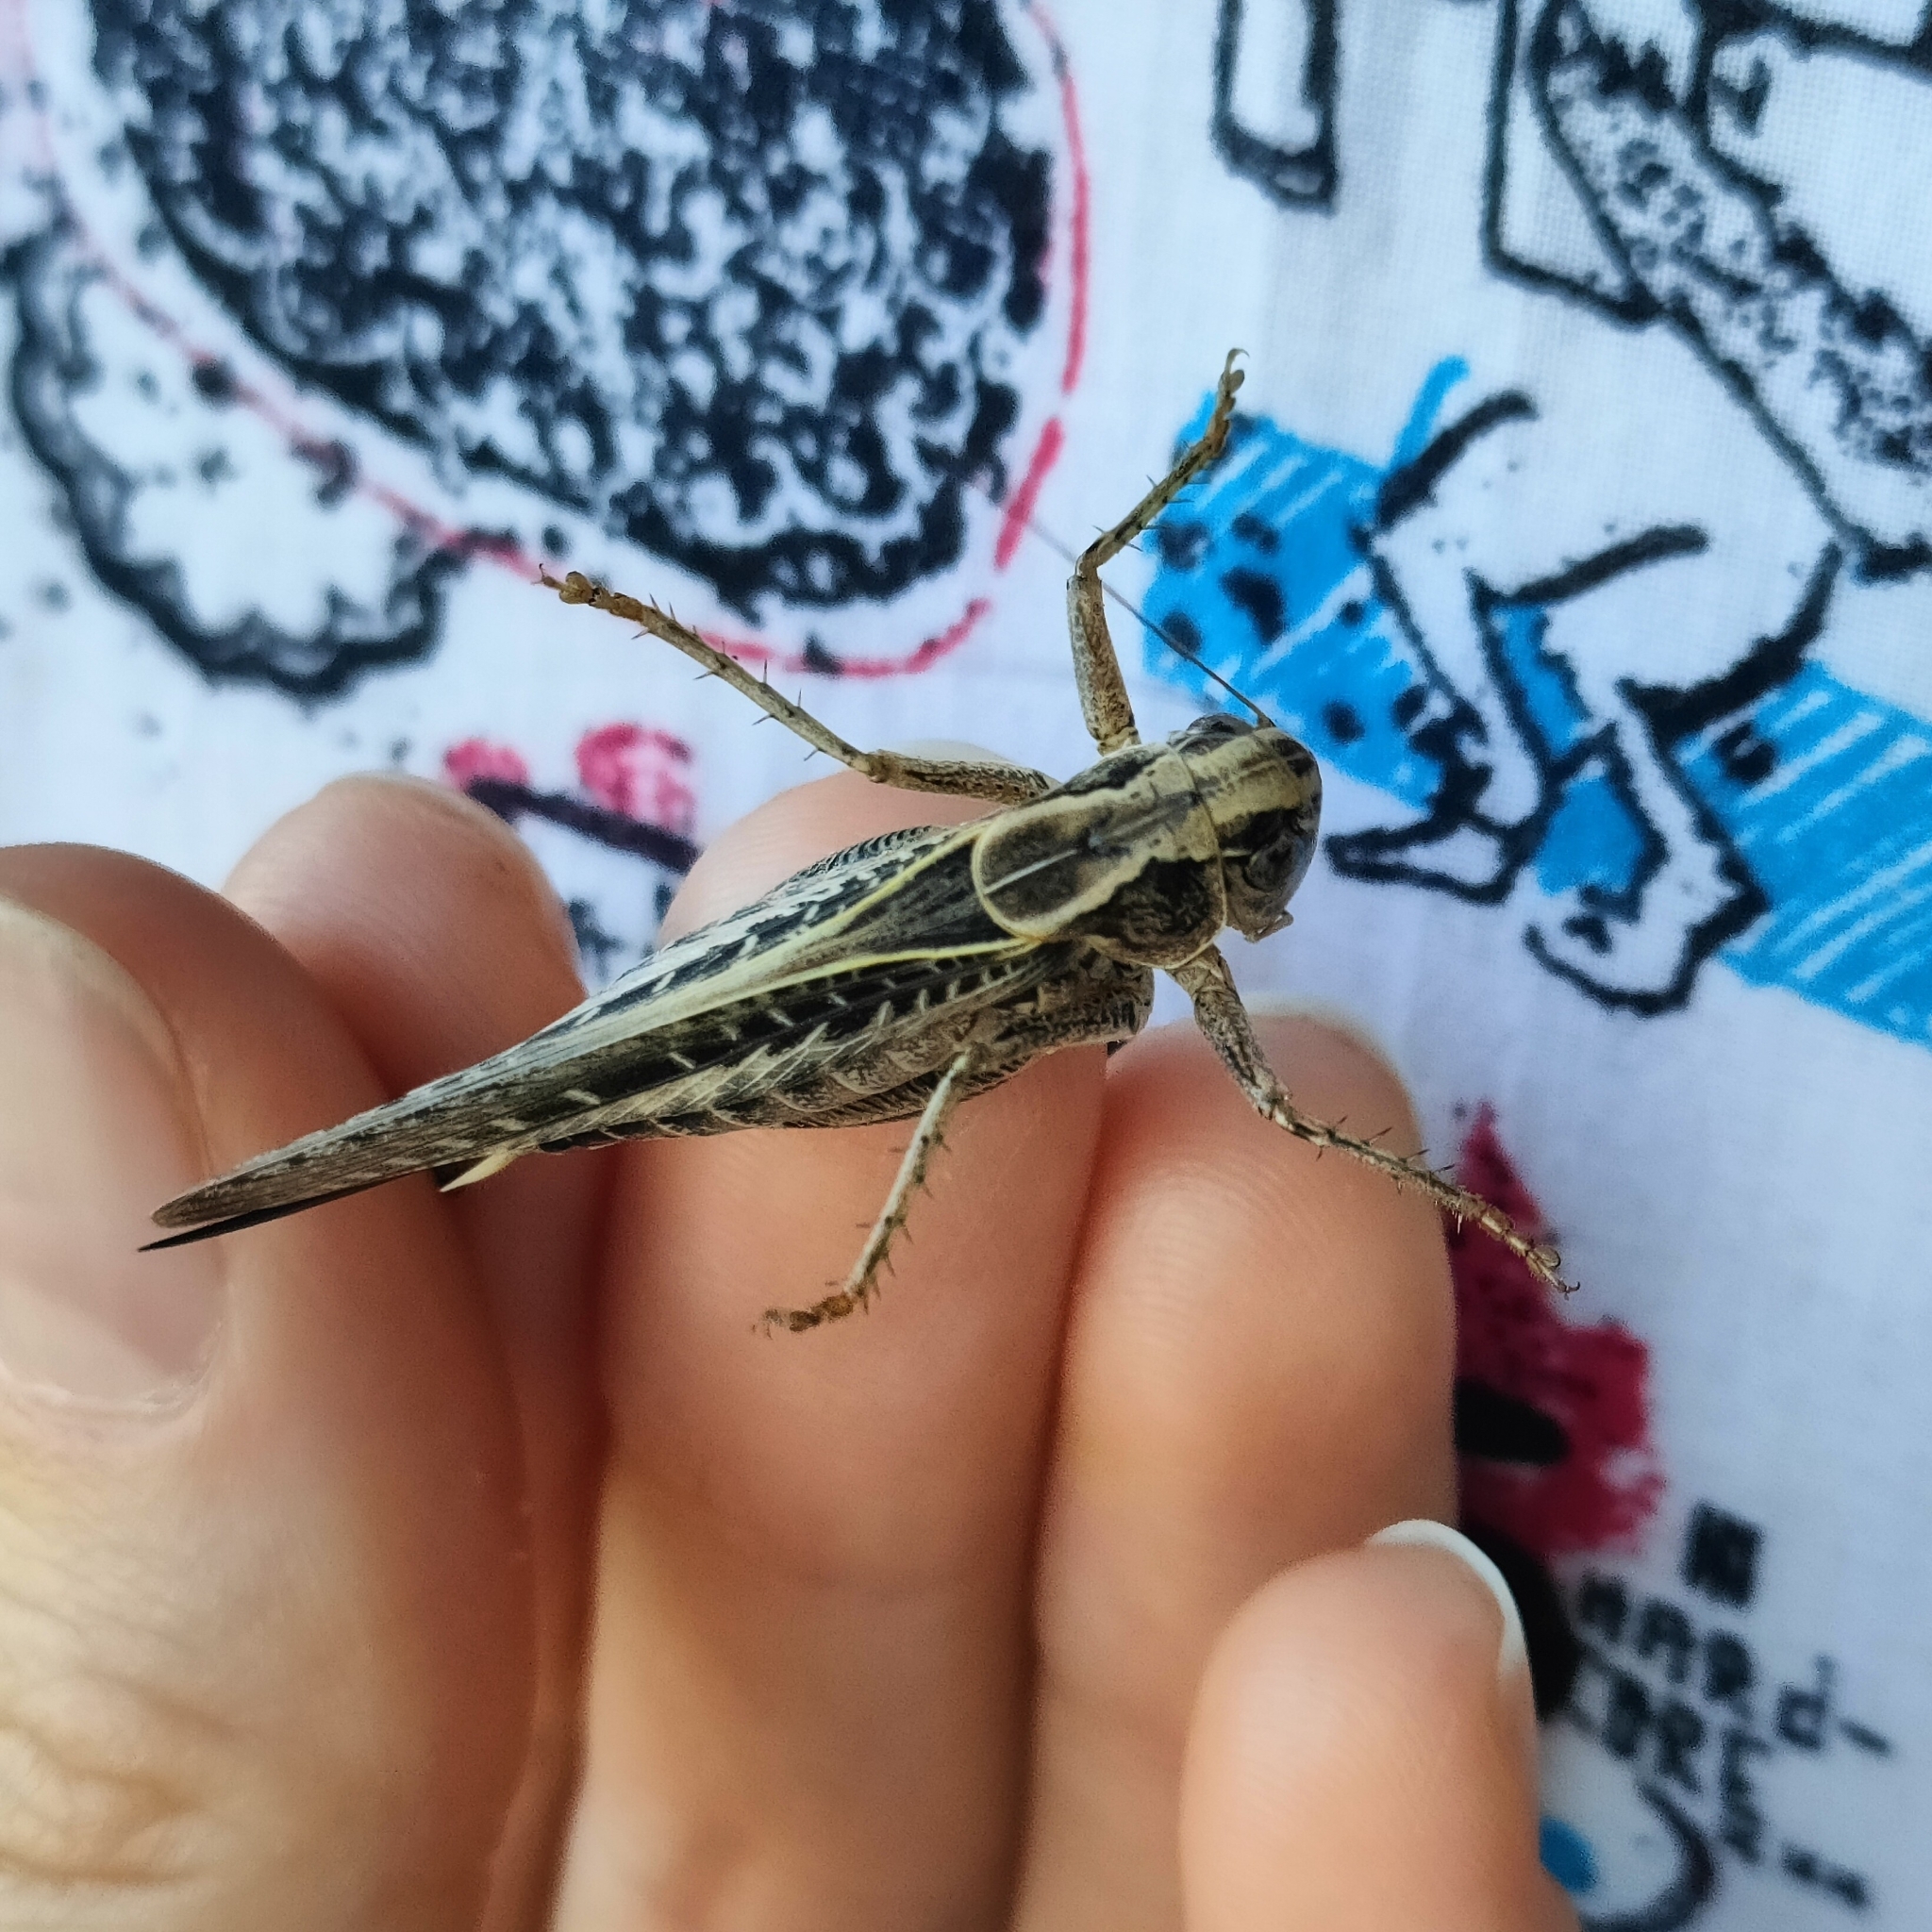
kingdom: Animalia
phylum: Arthropoda
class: Insecta
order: Orthoptera
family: Tettigoniidae
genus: Platycleis
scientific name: Platycleis affinis
